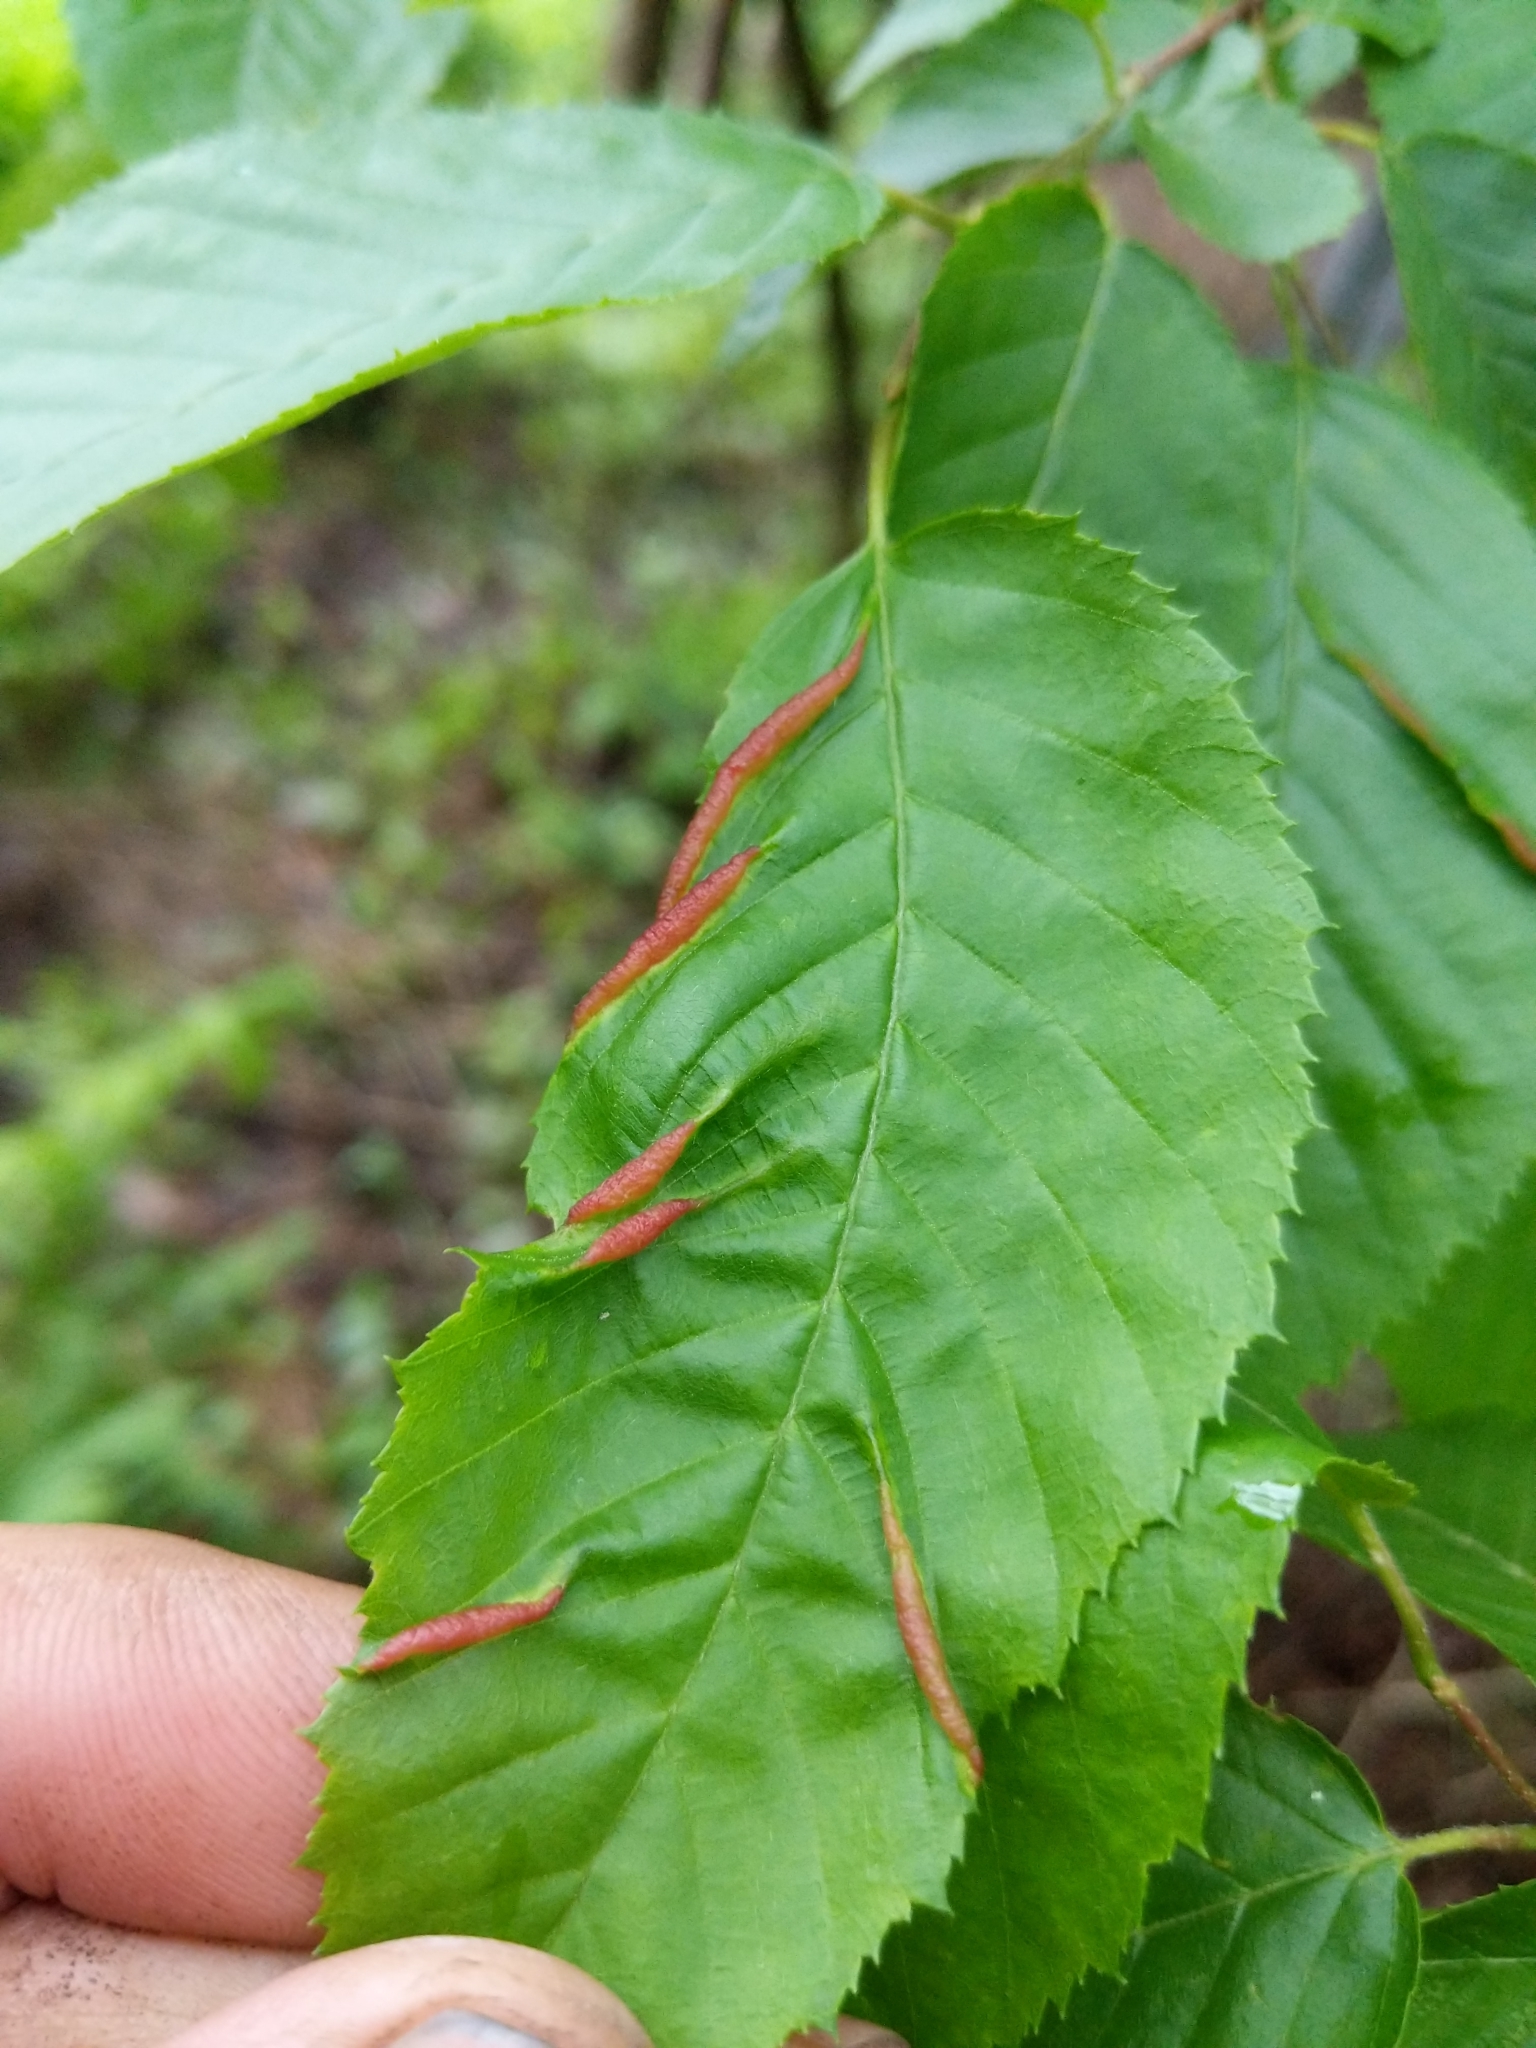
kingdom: Animalia
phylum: Arthropoda
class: Insecta
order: Diptera
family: Cecidomyiidae
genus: Dasineura
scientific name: Dasineura pudibunda
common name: Hornbeam leaf gall midge
